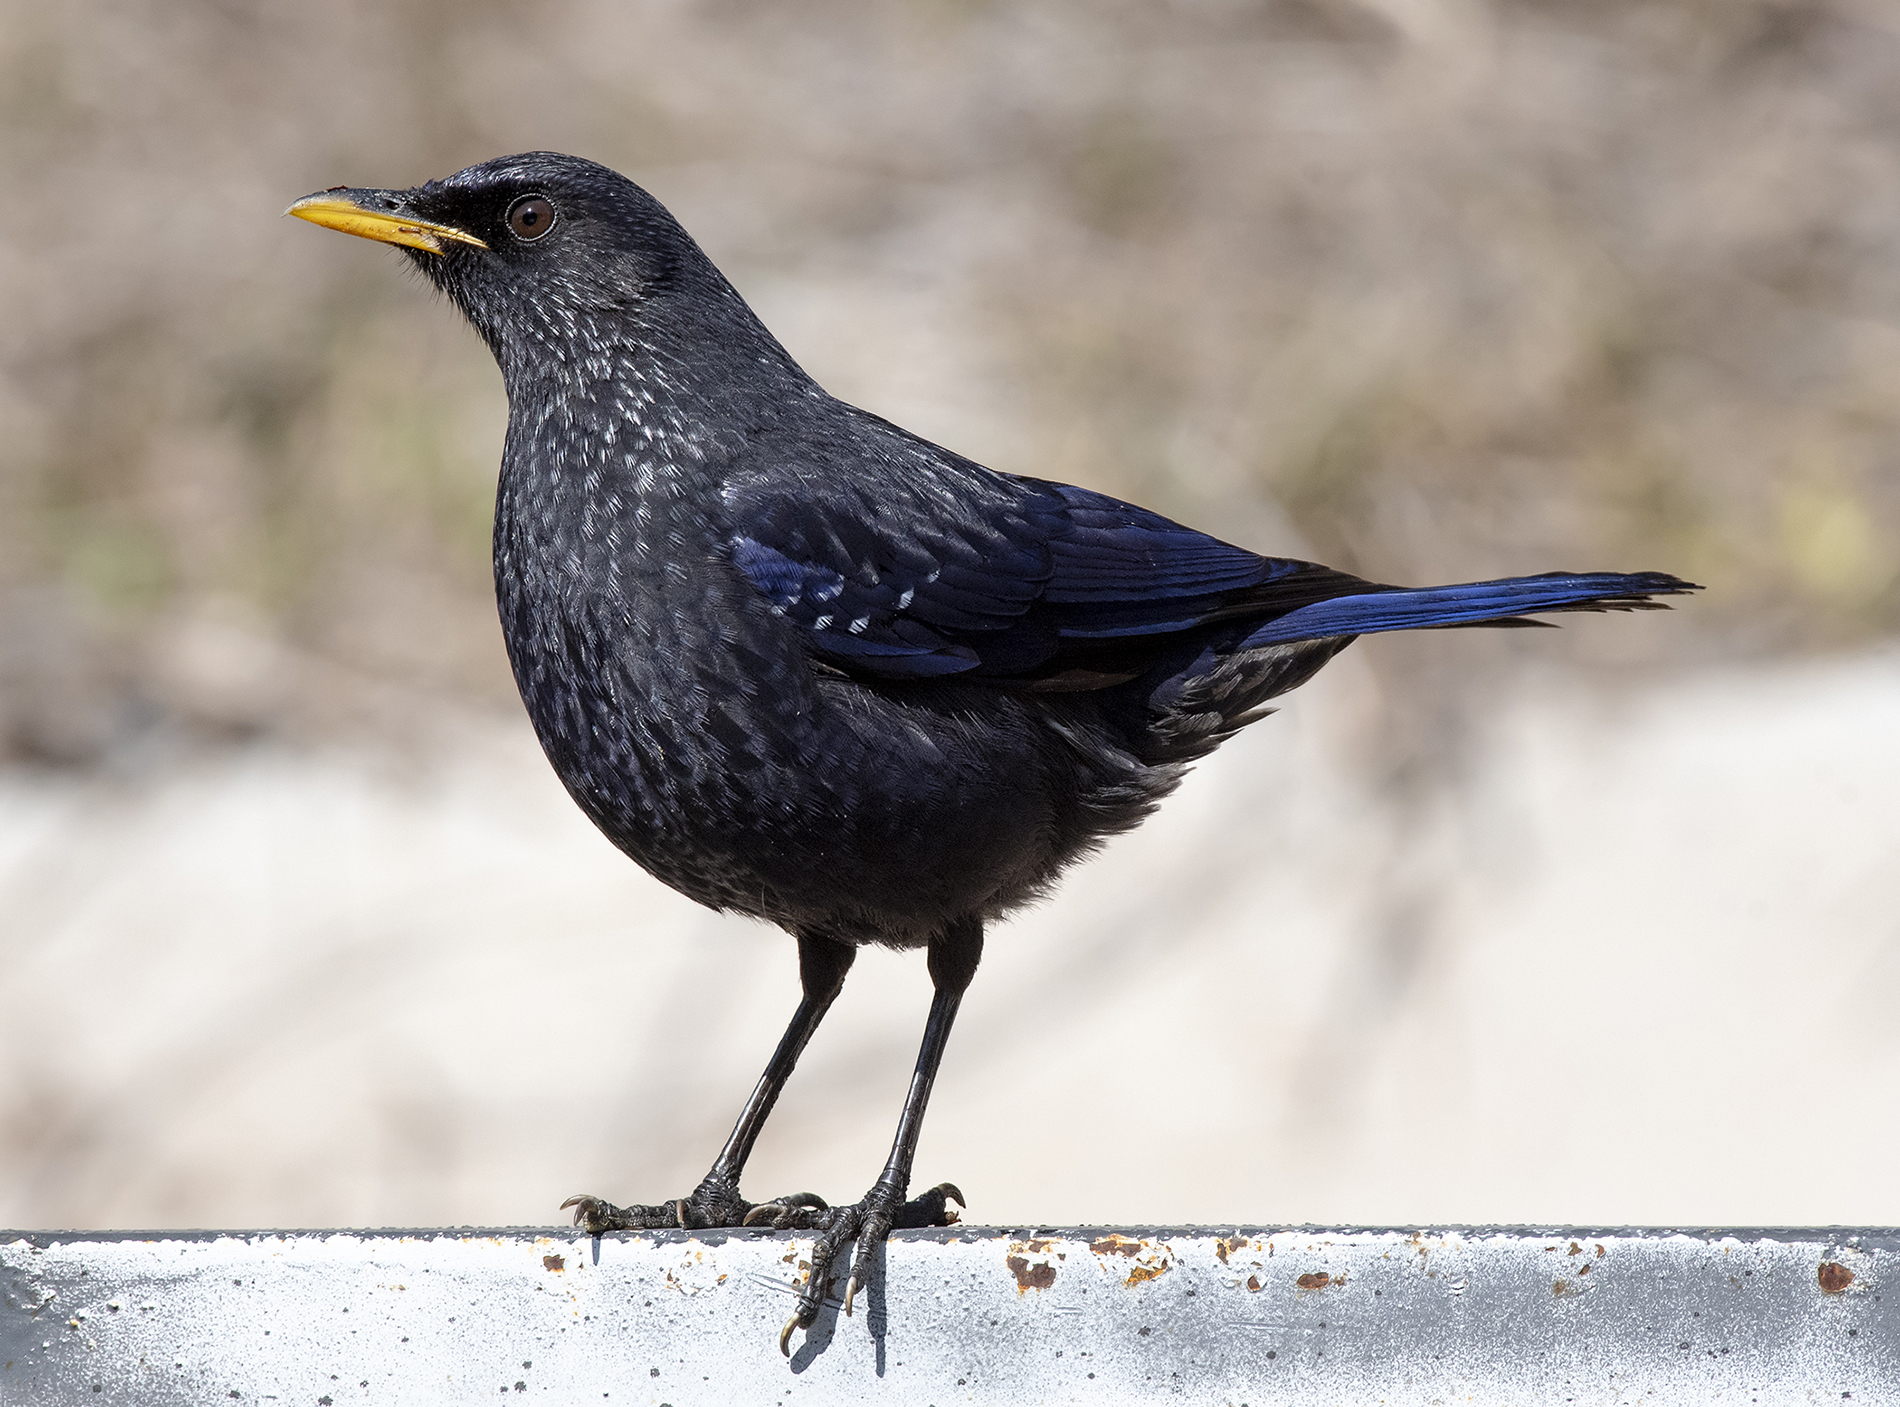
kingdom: Animalia
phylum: Chordata
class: Aves
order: Passeriformes
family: Muscicapidae
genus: Myophonus
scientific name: Myophonus caeruleus
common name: Blue whistling-thrush
